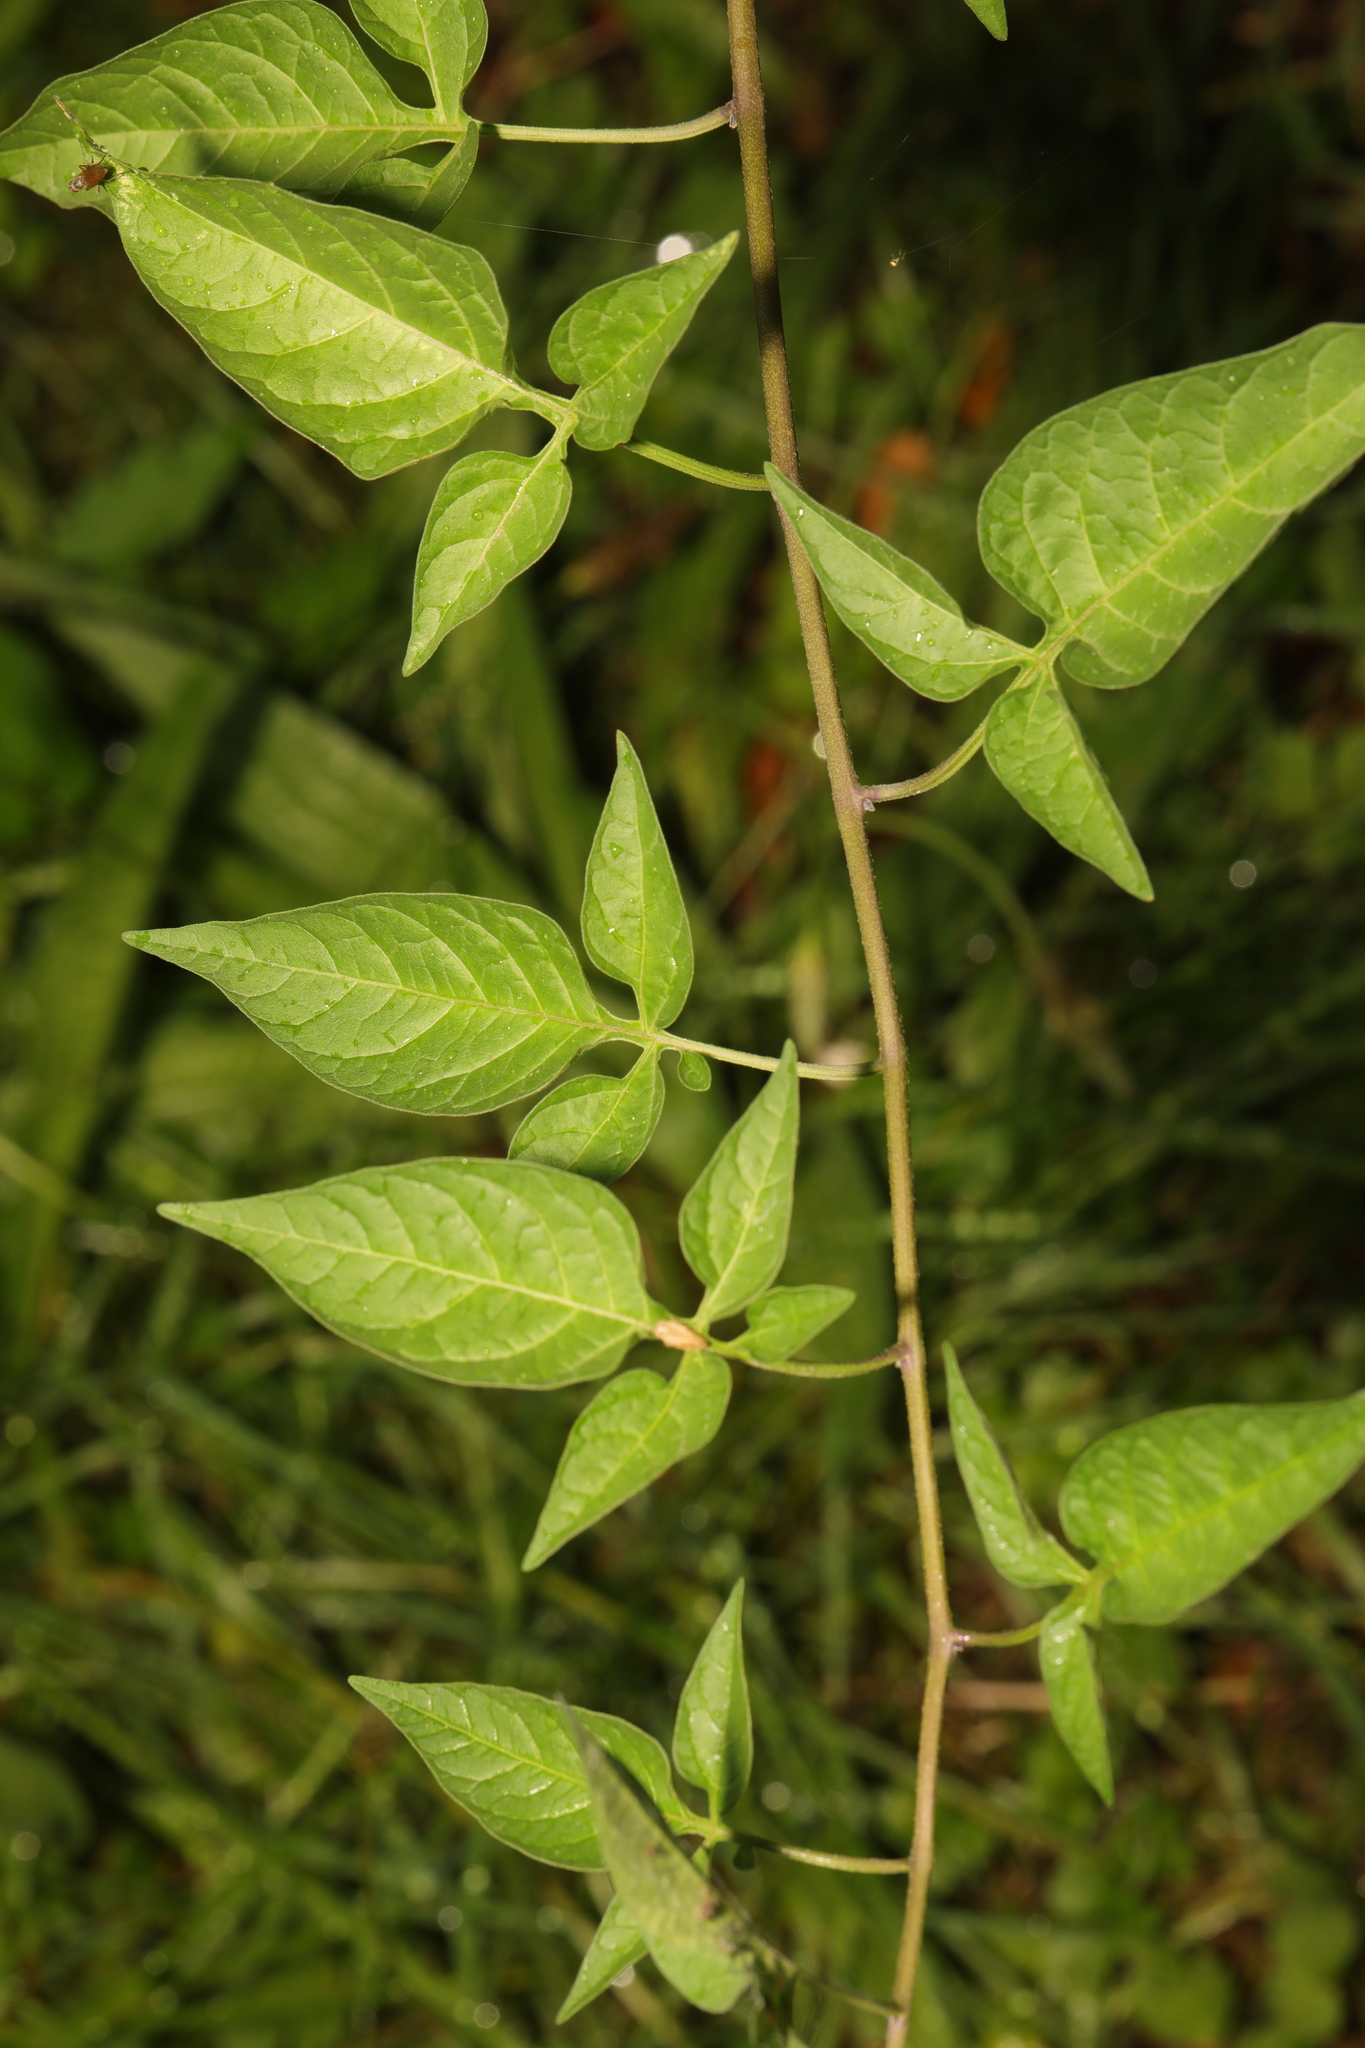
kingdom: Plantae
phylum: Tracheophyta
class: Magnoliopsida
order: Solanales
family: Solanaceae
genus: Solanum
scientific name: Solanum dulcamara
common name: Climbing nightshade
